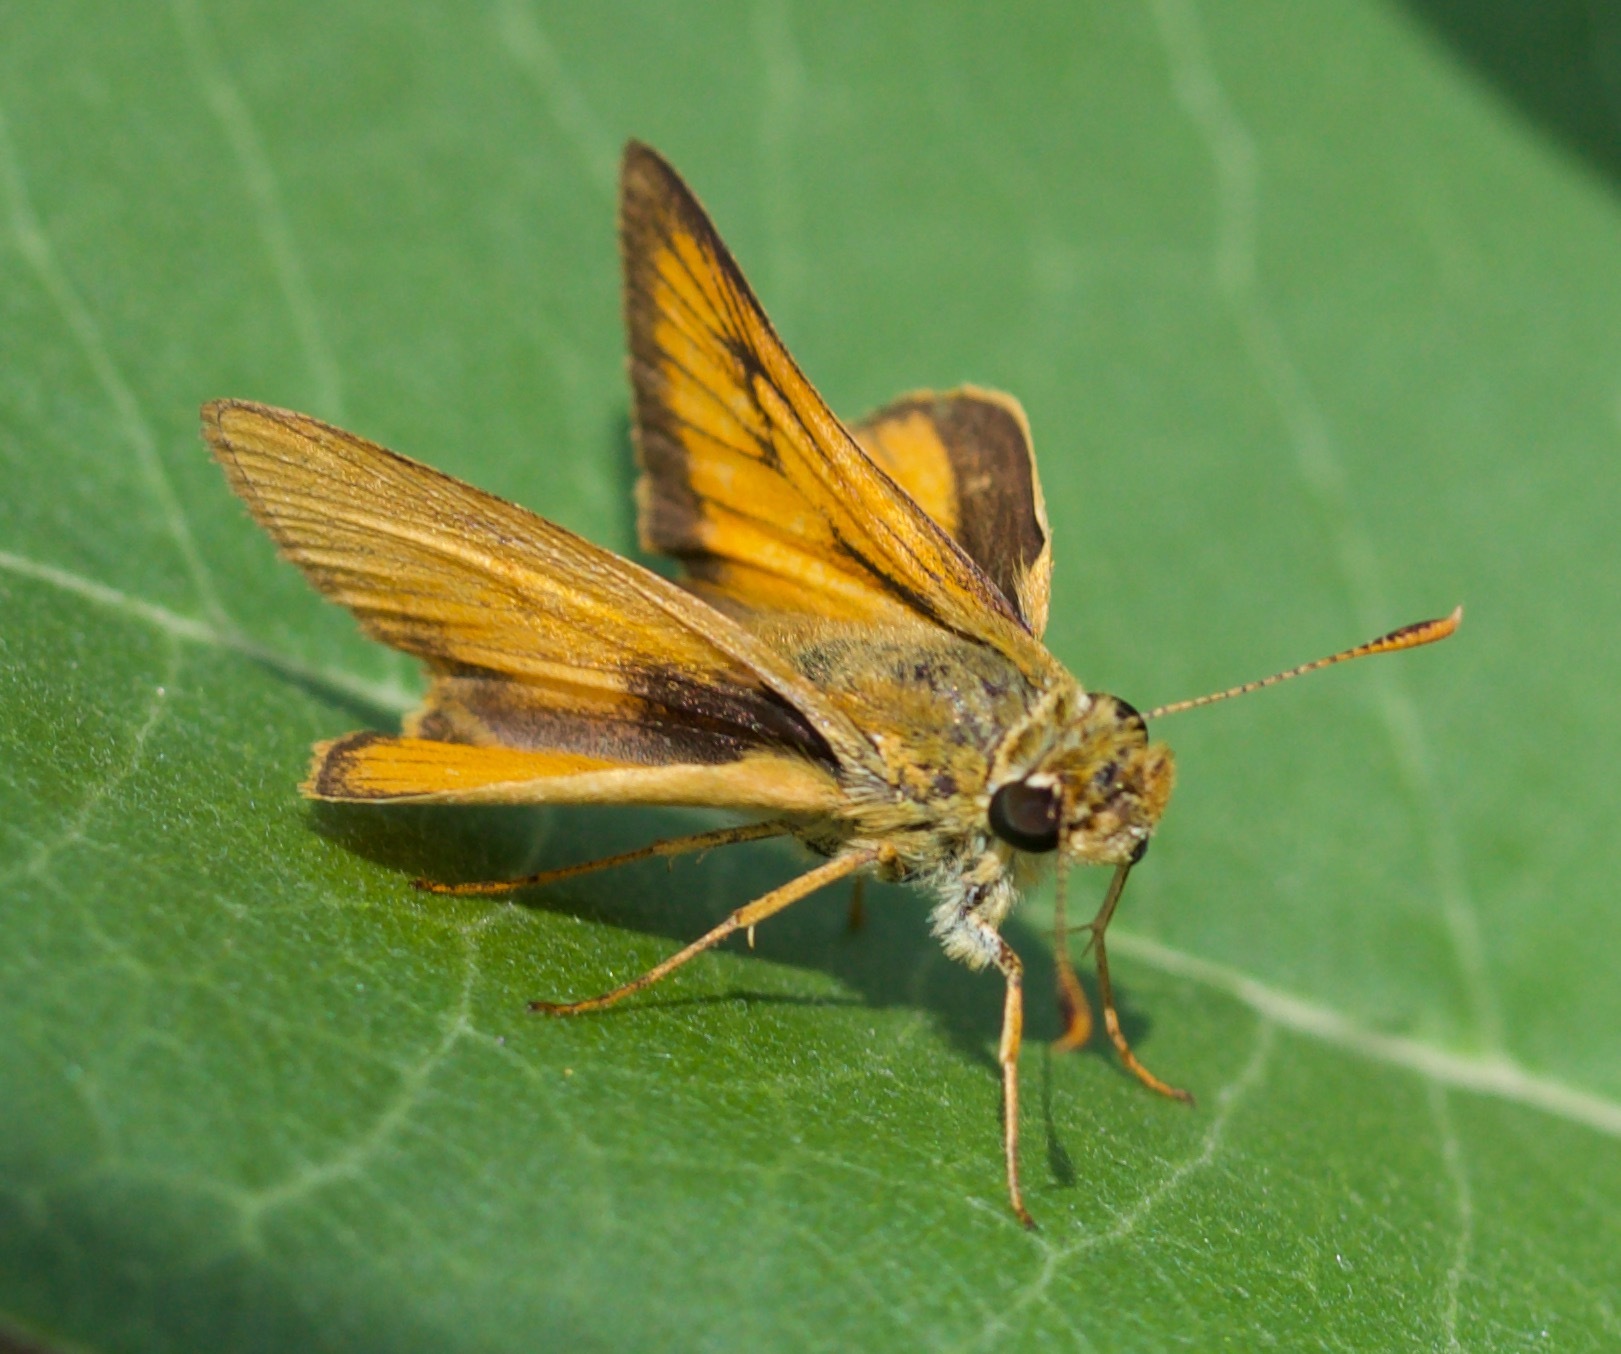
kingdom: Animalia
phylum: Arthropoda
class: Insecta
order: Lepidoptera
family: Hesperiidae
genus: Atrytone
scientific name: Atrytone delaware
